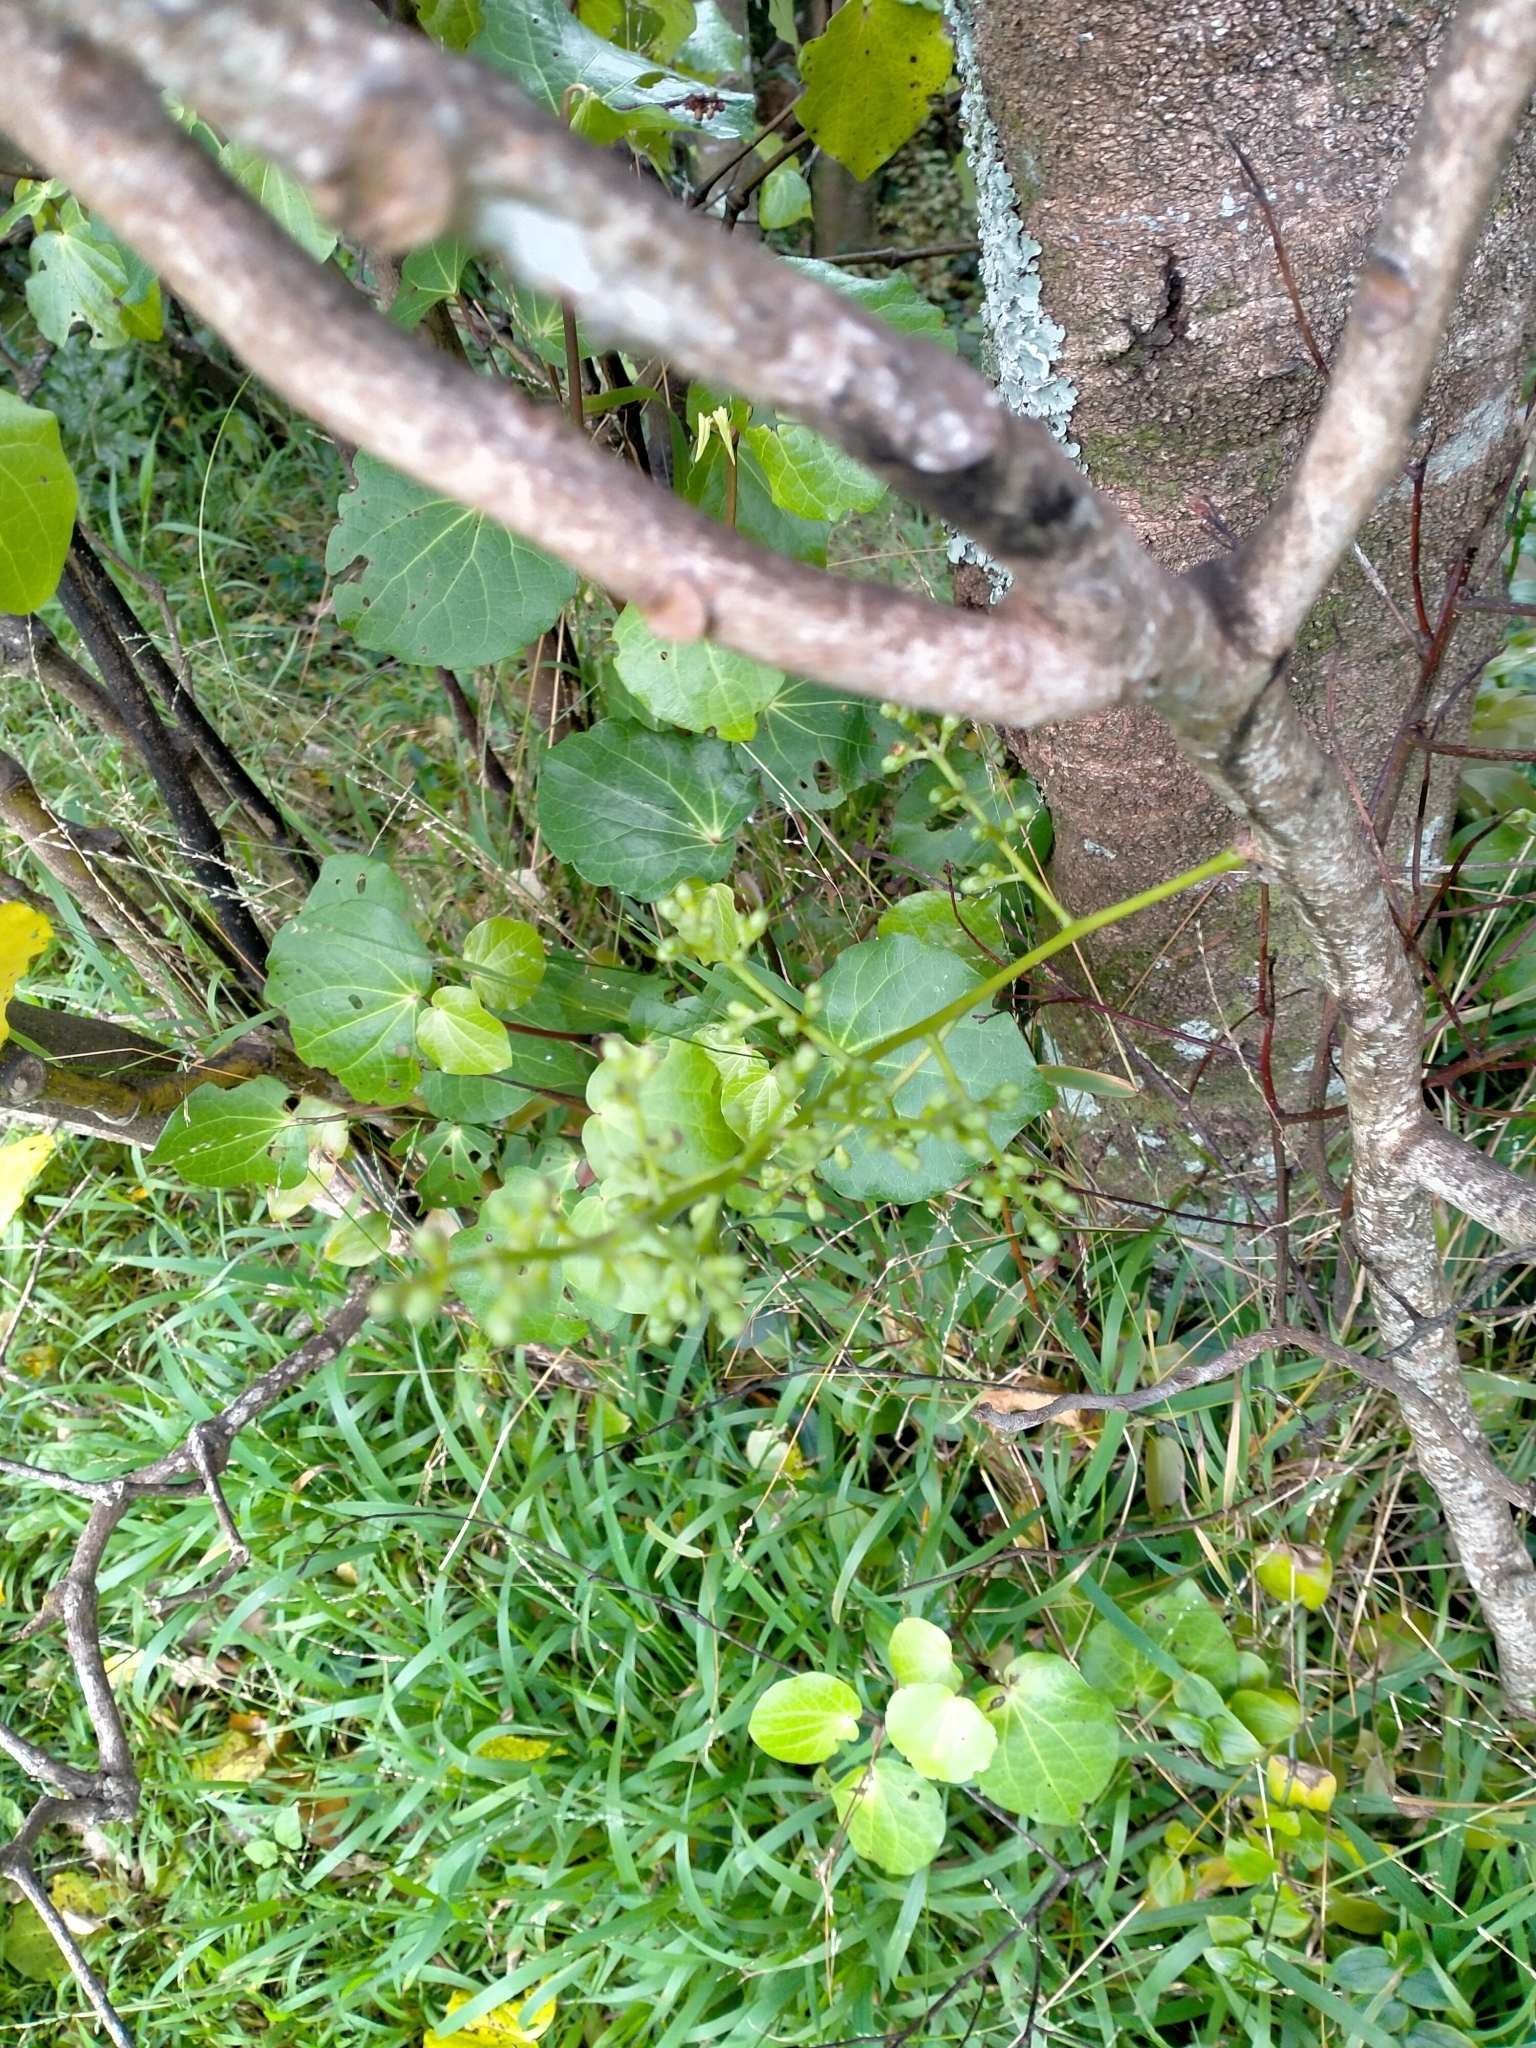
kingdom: Plantae
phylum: Tracheophyta
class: Magnoliopsida
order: Sapindales
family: Meliaceae
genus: Didymocheton
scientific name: Didymocheton spectabilis
